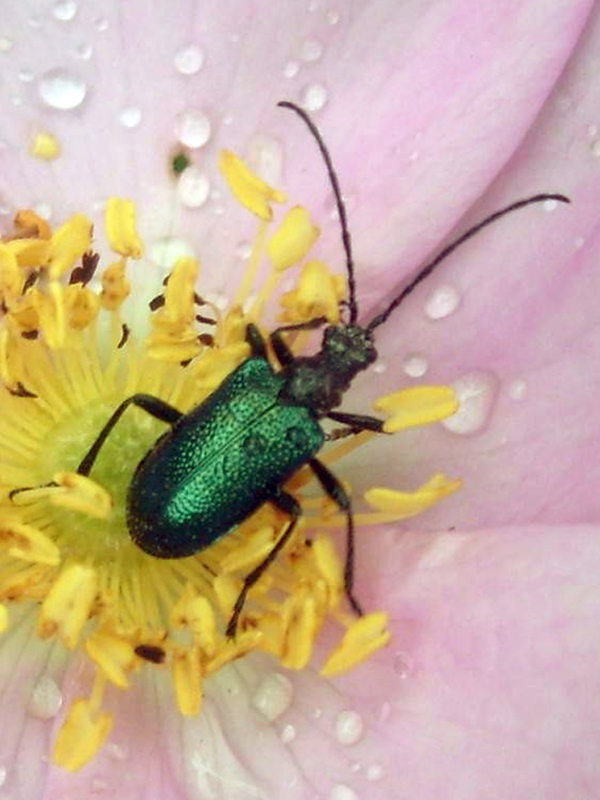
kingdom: Animalia
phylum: Arthropoda
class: Insecta
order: Coleoptera
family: Cerambycidae
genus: Gaurotes
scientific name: Gaurotes virginea
